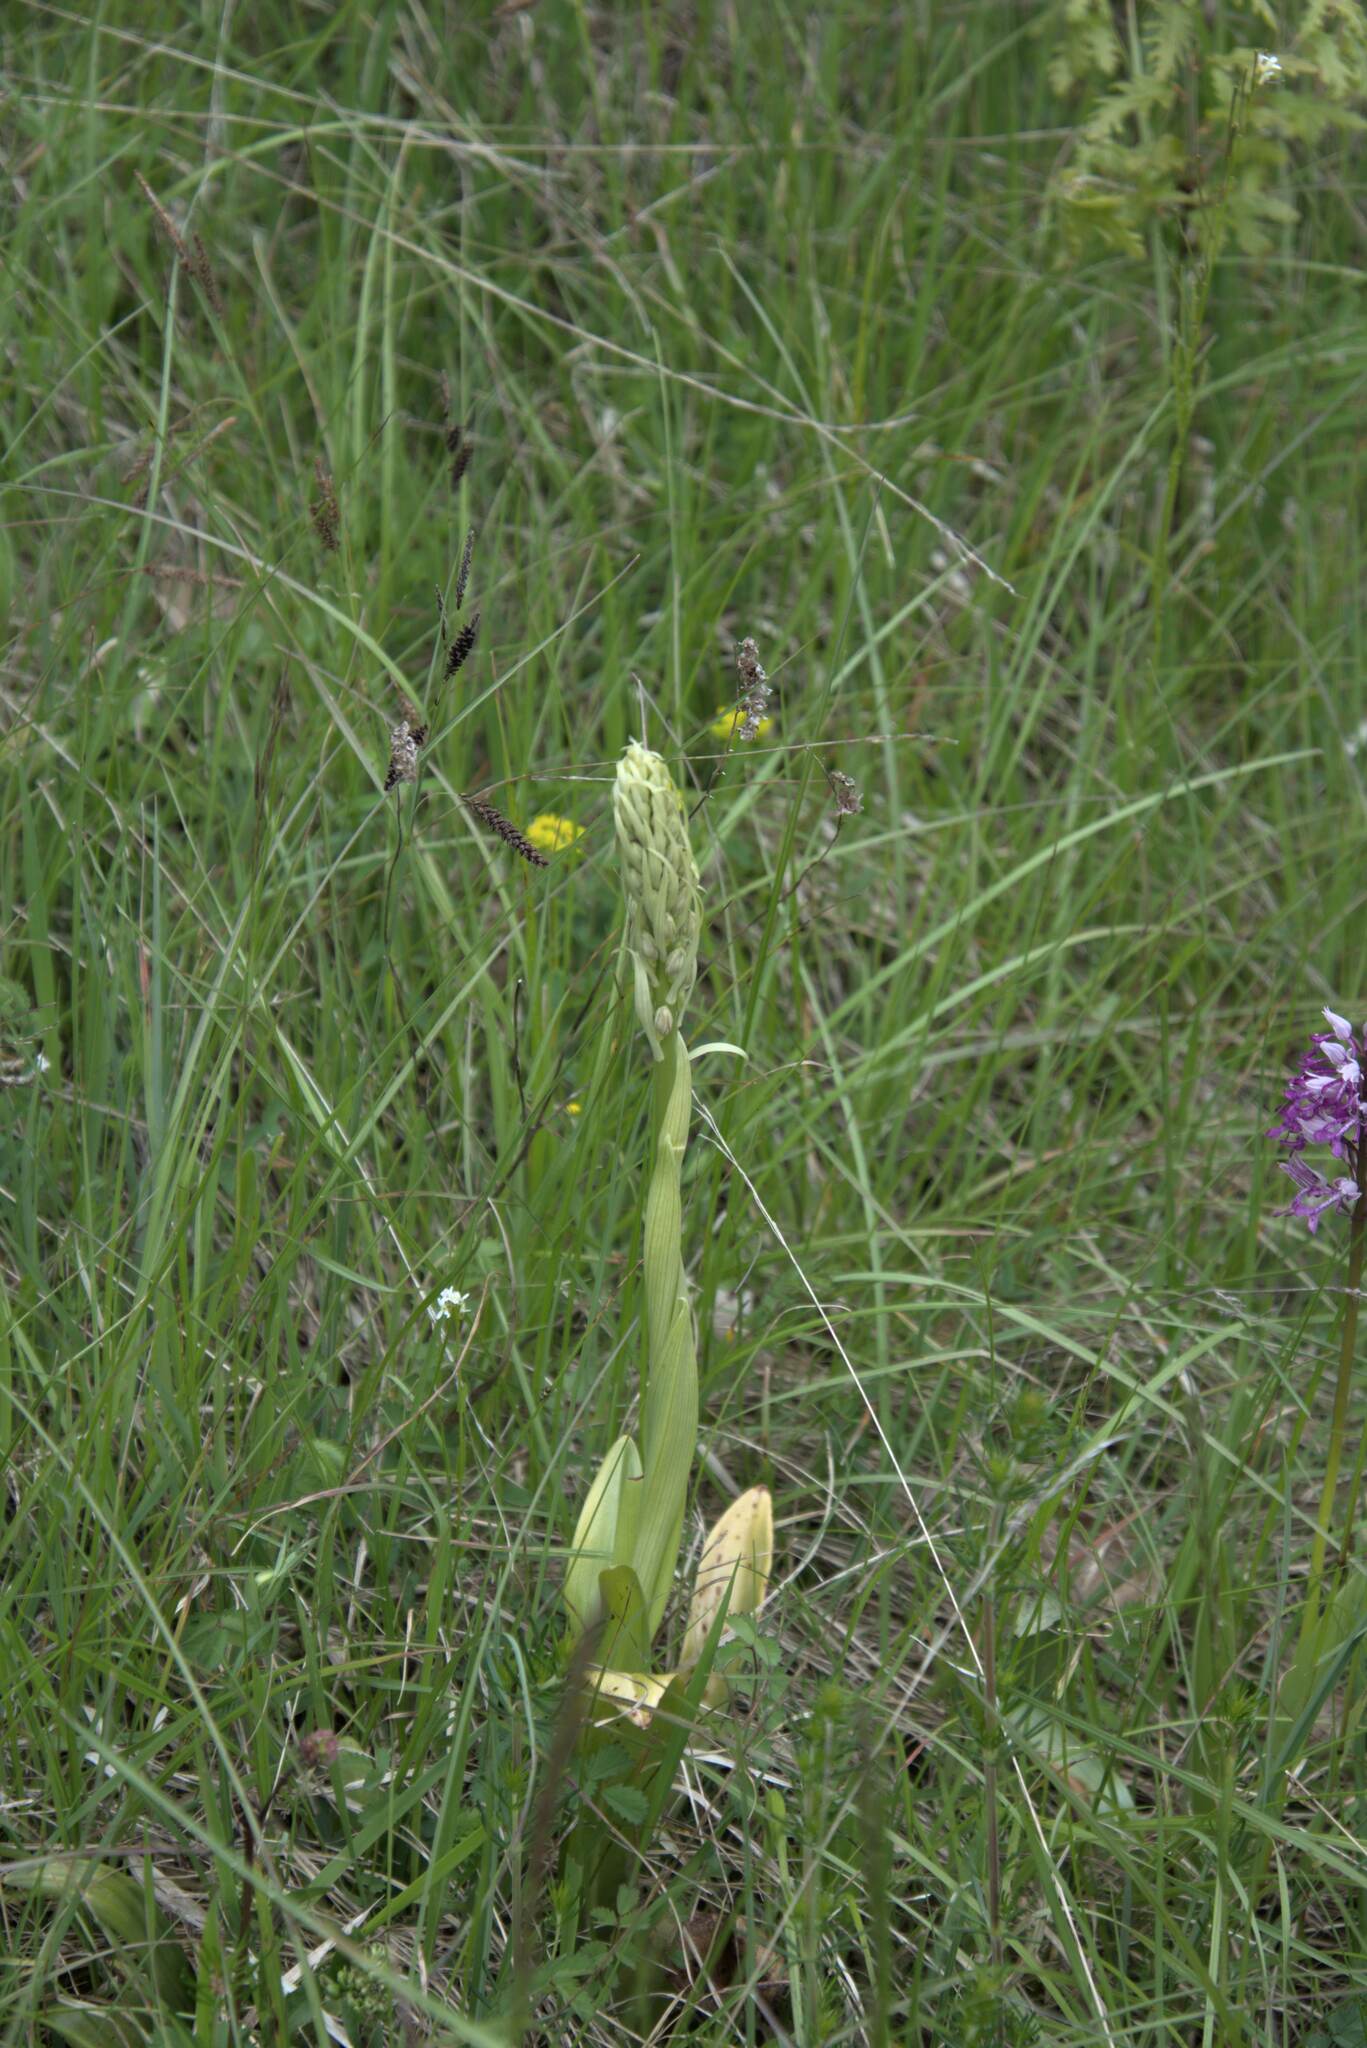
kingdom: Plantae
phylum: Tracheophyta
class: Liliopsida
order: Asparagales
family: Orchidaceae
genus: Himantoglossum
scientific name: Himantoglossum hircinum
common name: Lizard orchid
